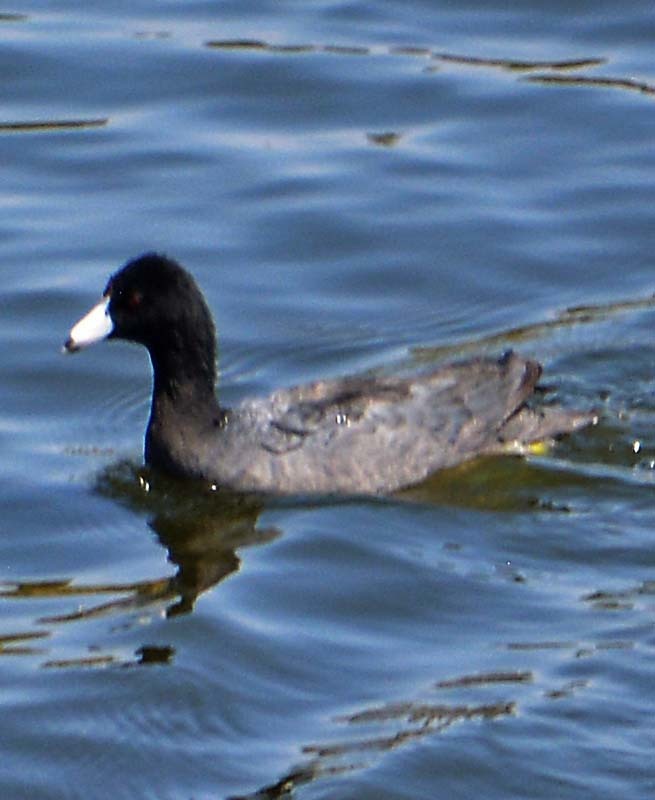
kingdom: Animalia
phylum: Chordata
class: Aves
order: Gruiformes
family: Rallidae
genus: Fulica
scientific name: Fulica americana
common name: American coot
